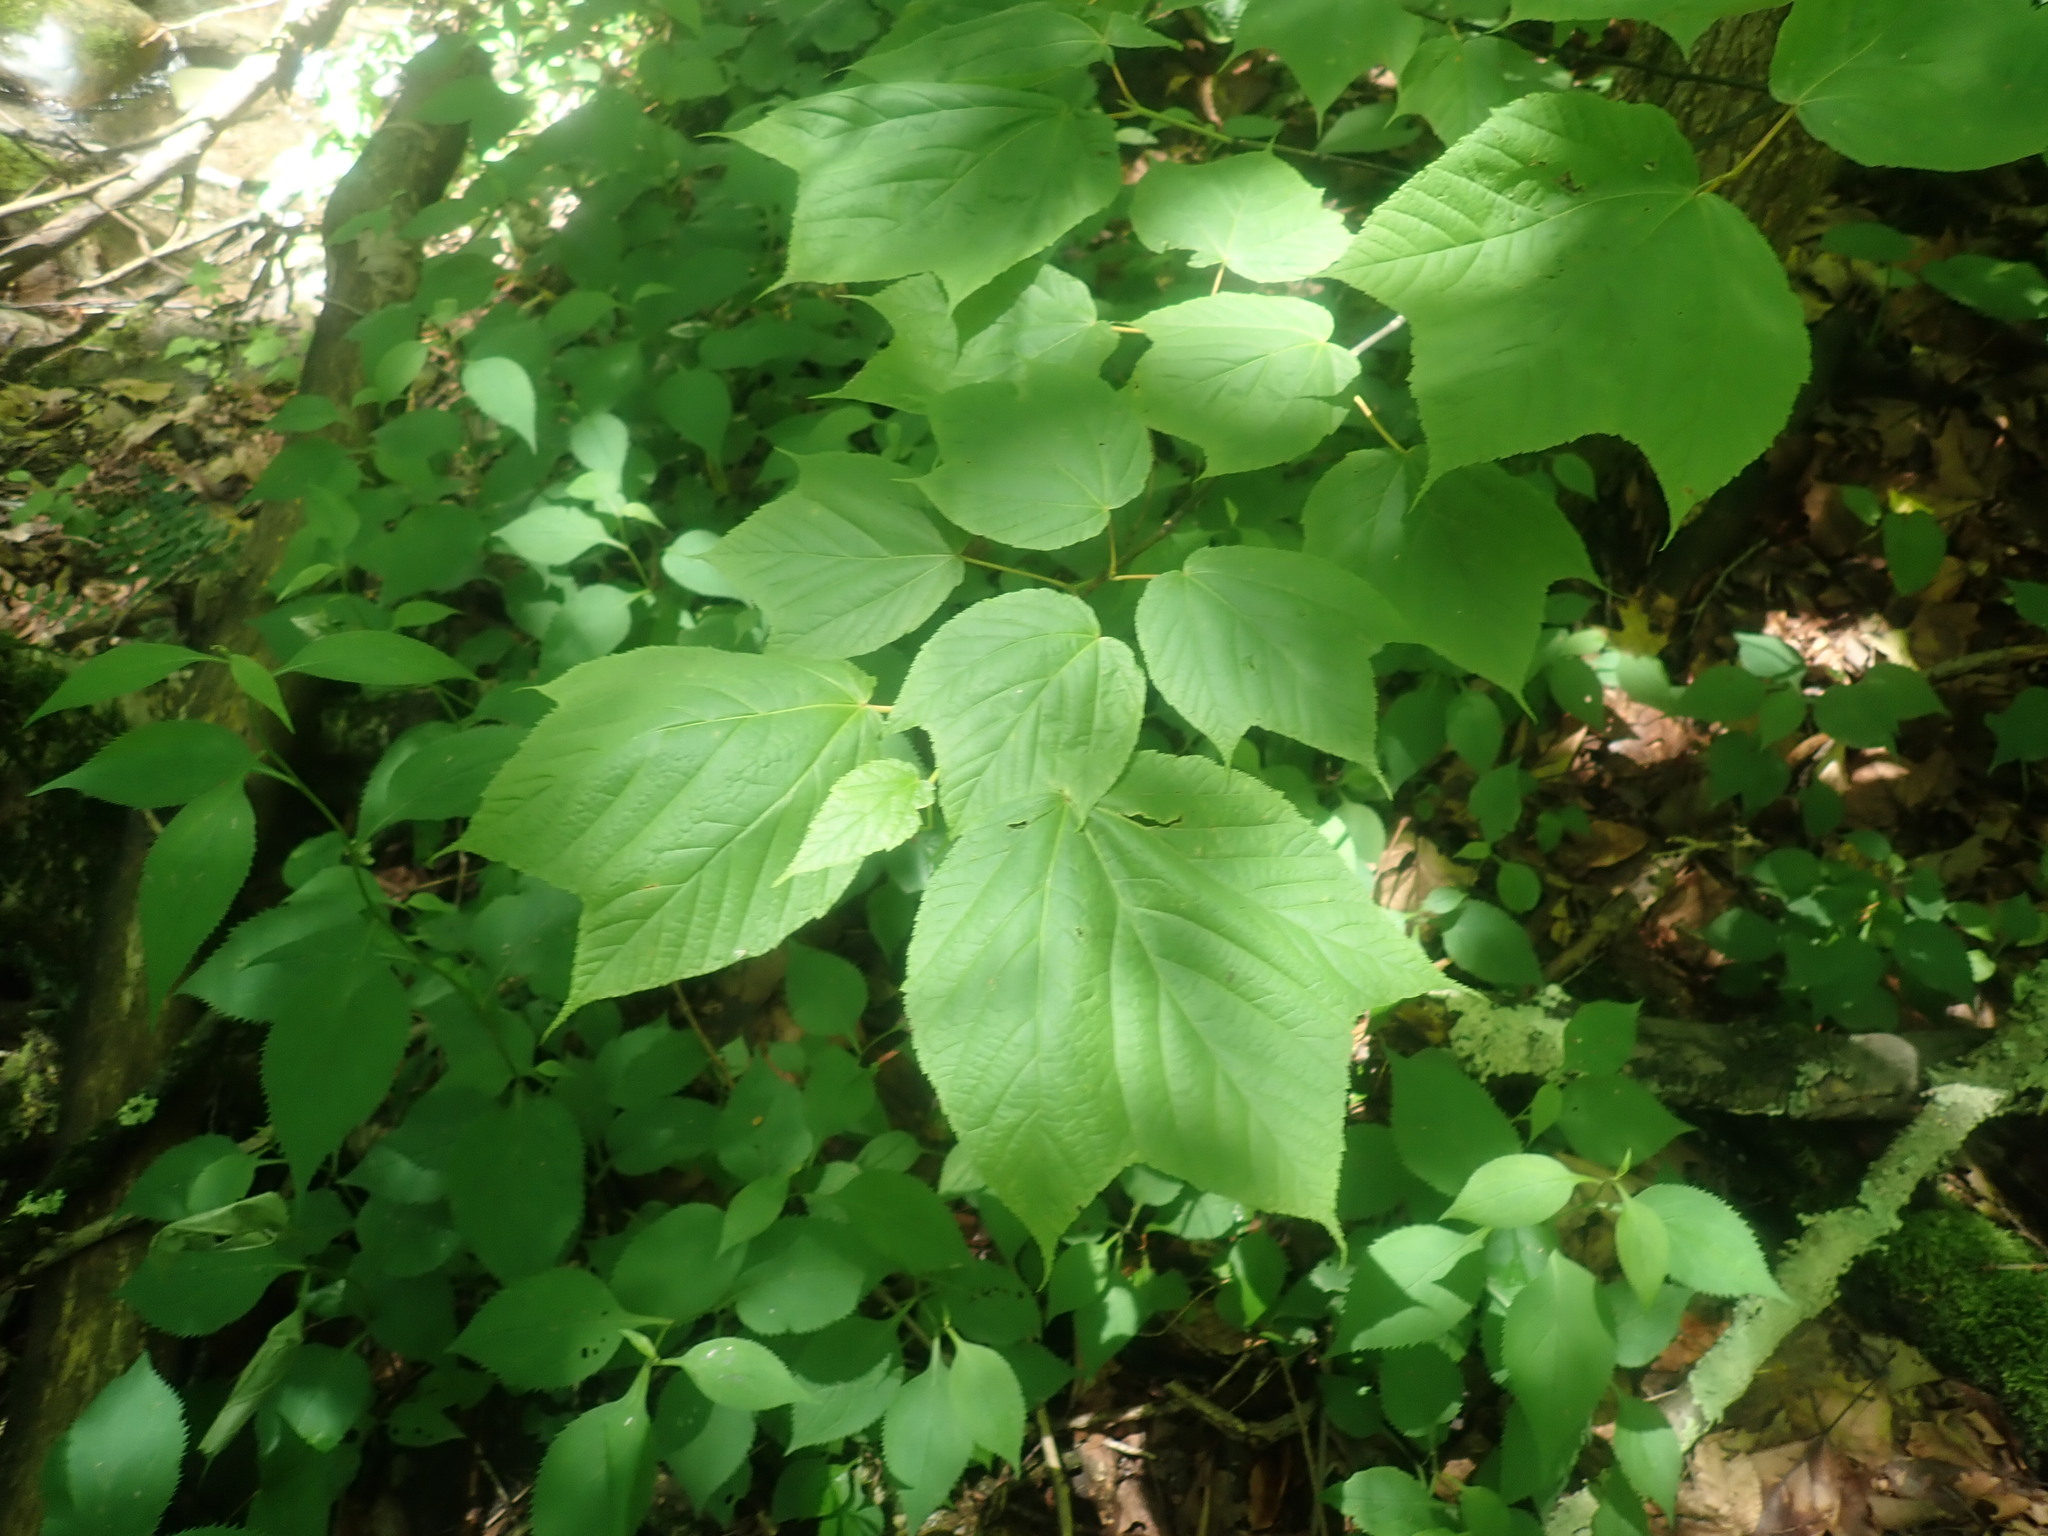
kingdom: Plantae
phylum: Tracheophyta
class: Magnoliopsida
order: Sapindales
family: Sapindaceae
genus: Acer
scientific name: Acer pensylvanicum
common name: Moosewood
